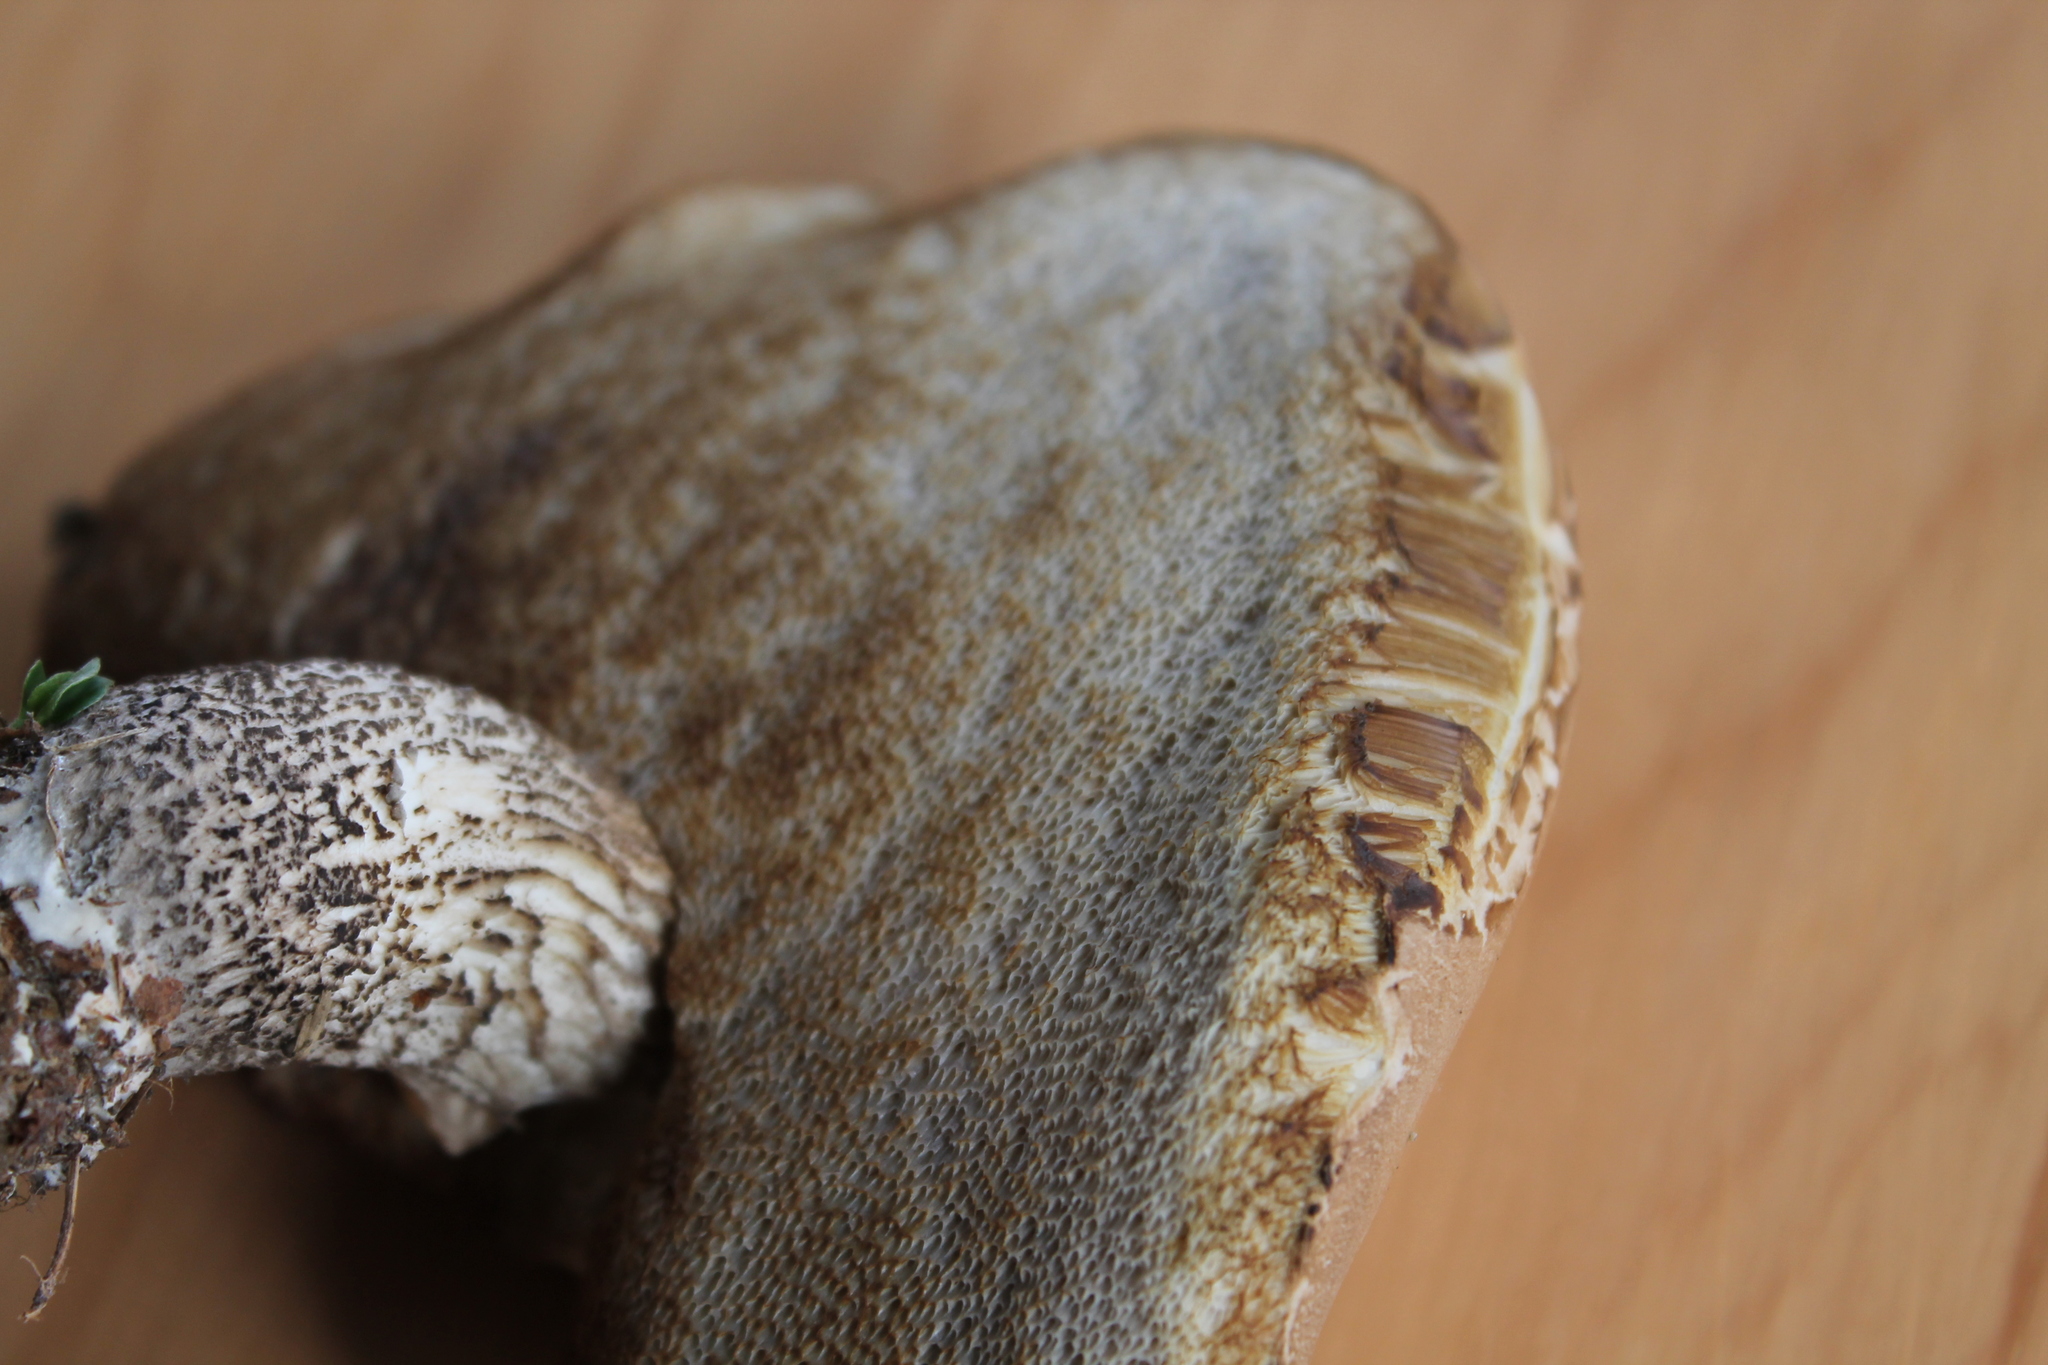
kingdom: Fungi
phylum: Basidiomycota
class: Agaricomycetes
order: Boletales
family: Boletaceae
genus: Leccinum
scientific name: Leccinum scabrum
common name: Blushing bolete
